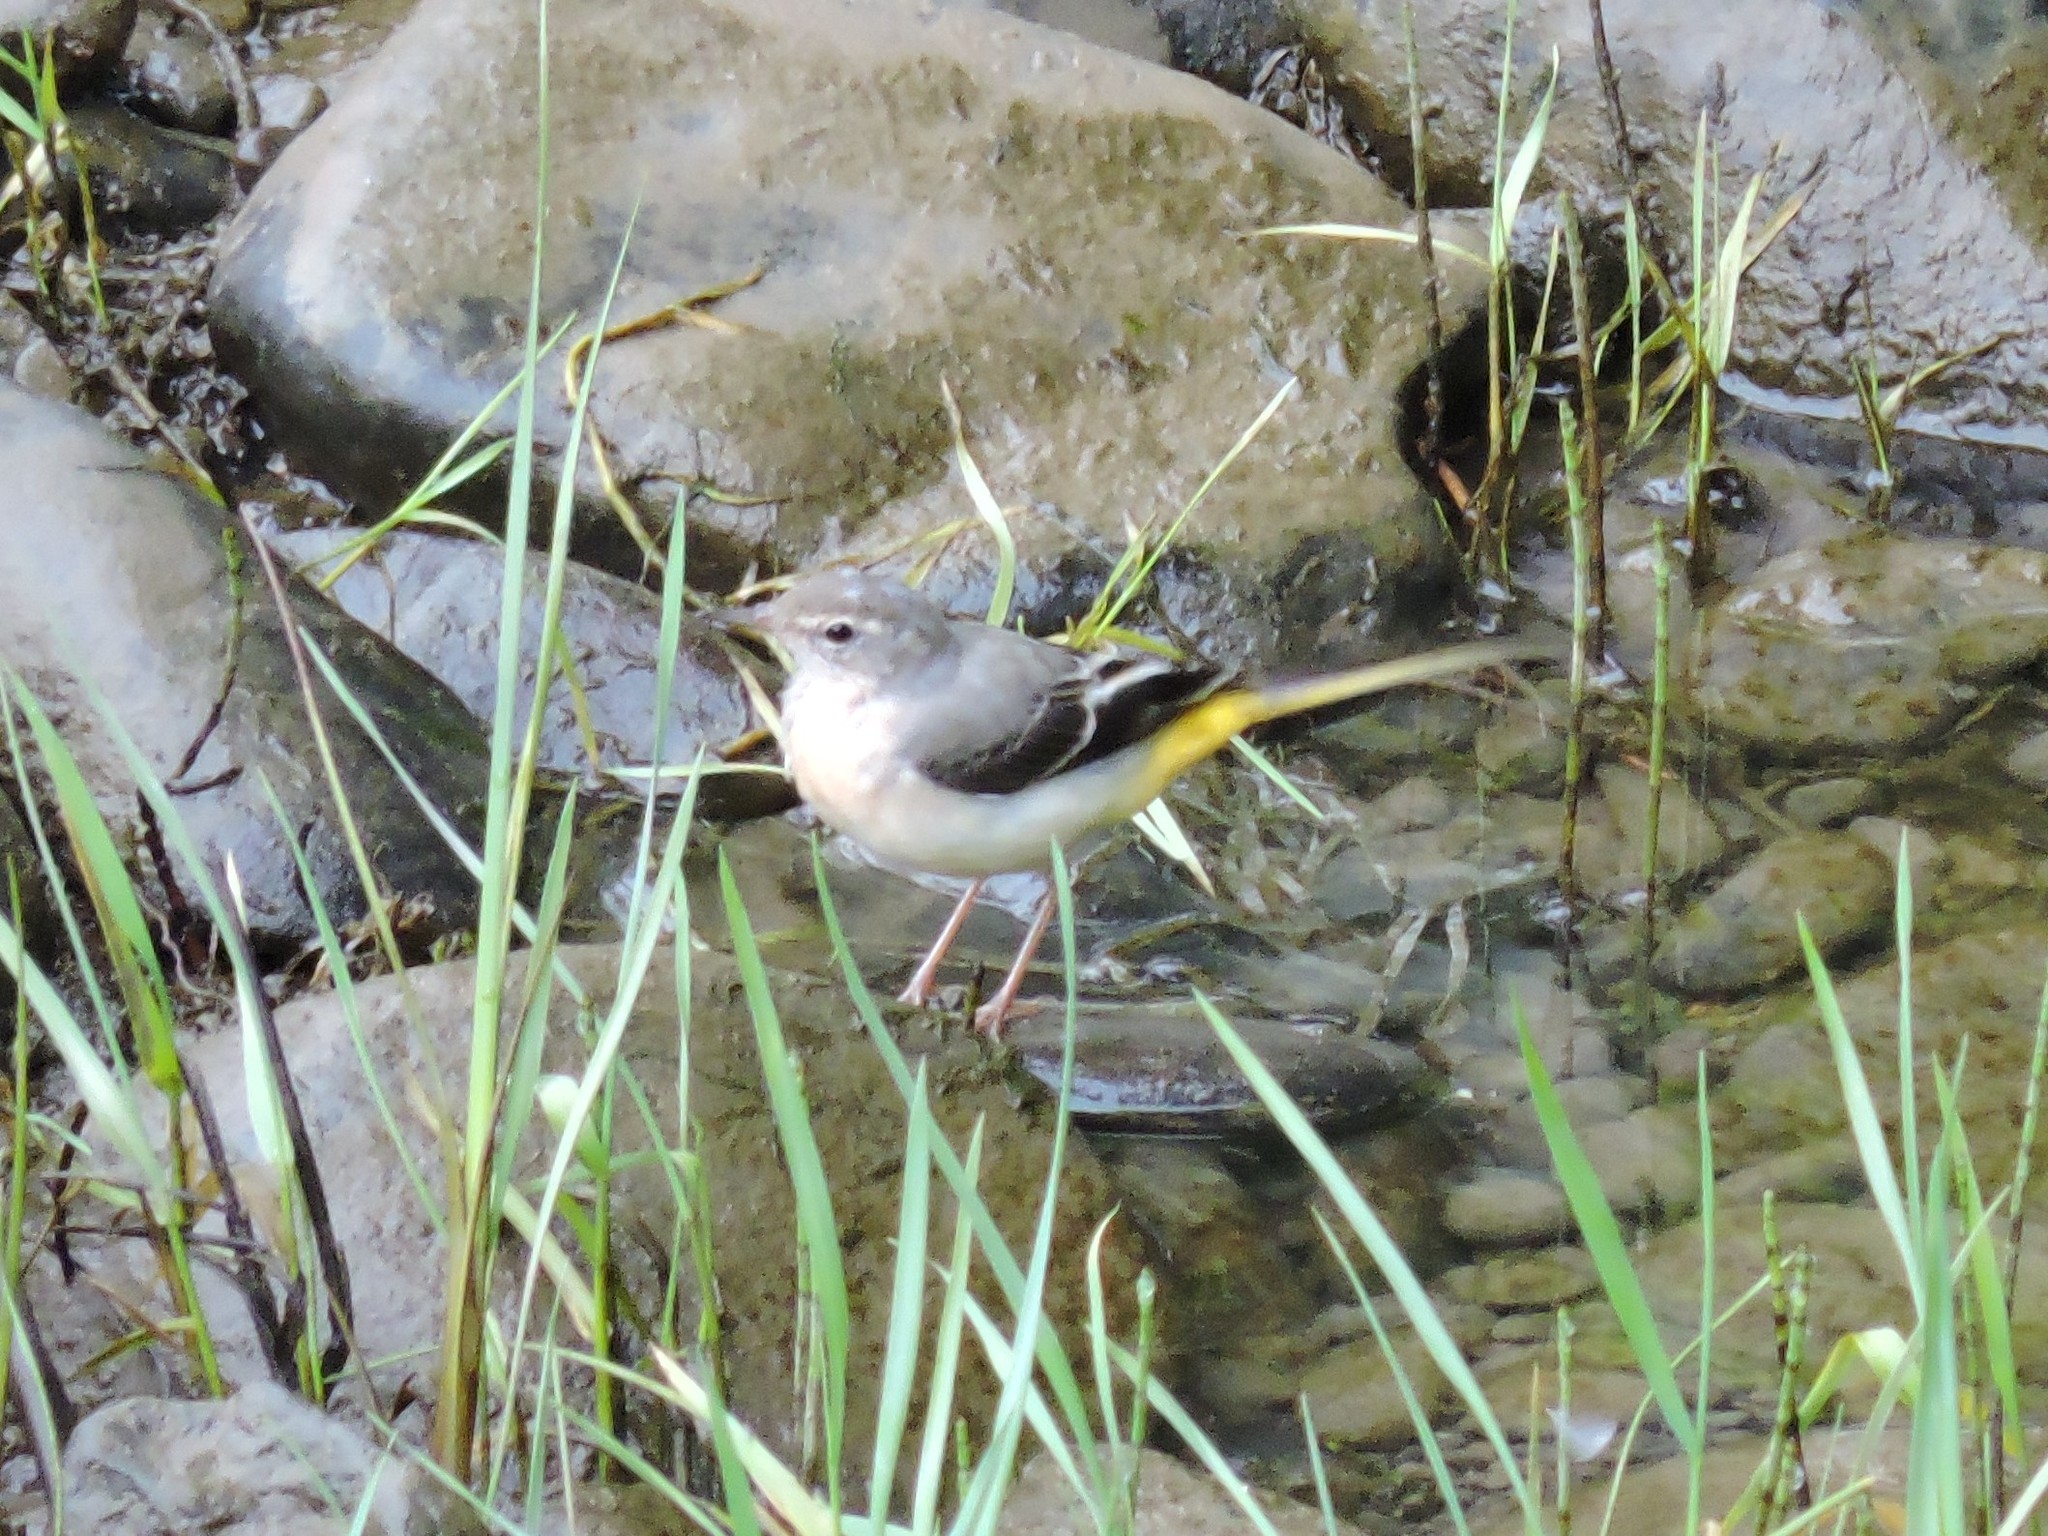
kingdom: Animalia
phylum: Chordata
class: Aves
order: Passeriformes
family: Motacillidae
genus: Motacilla
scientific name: Motacilla cinerea
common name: Grey wagtail
